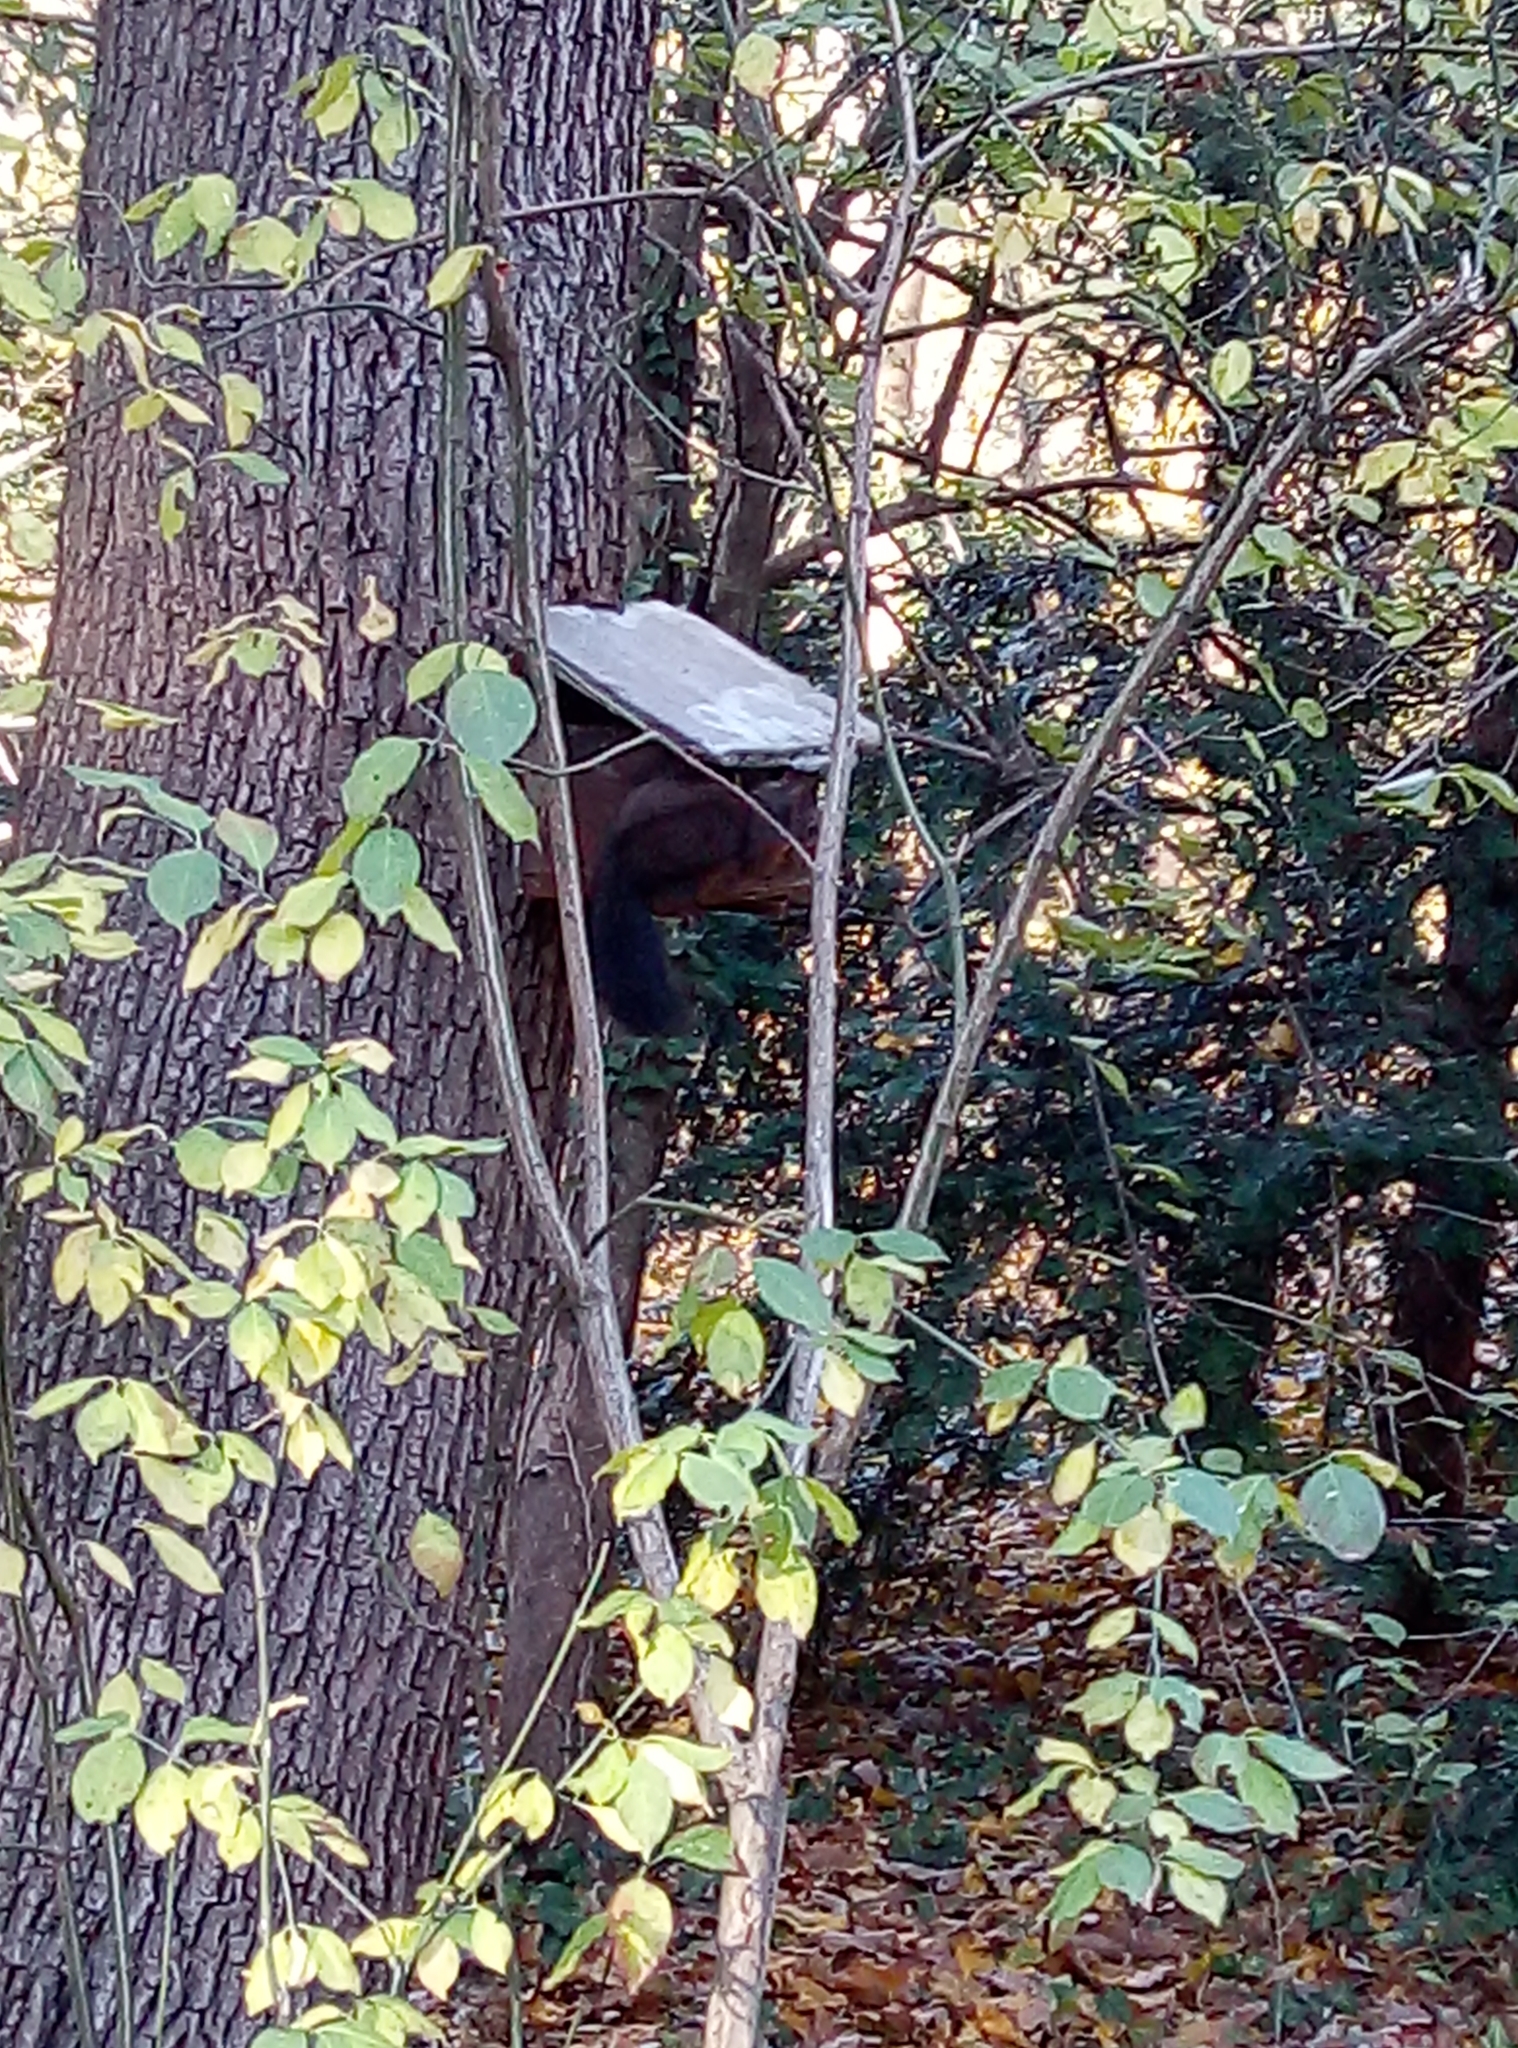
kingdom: Animalia
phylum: Chordata
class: Mammalia
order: Rodentia
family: Sciuridae
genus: Sciurus
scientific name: Sciurus vulgaris
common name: Eurasian red squirrel
